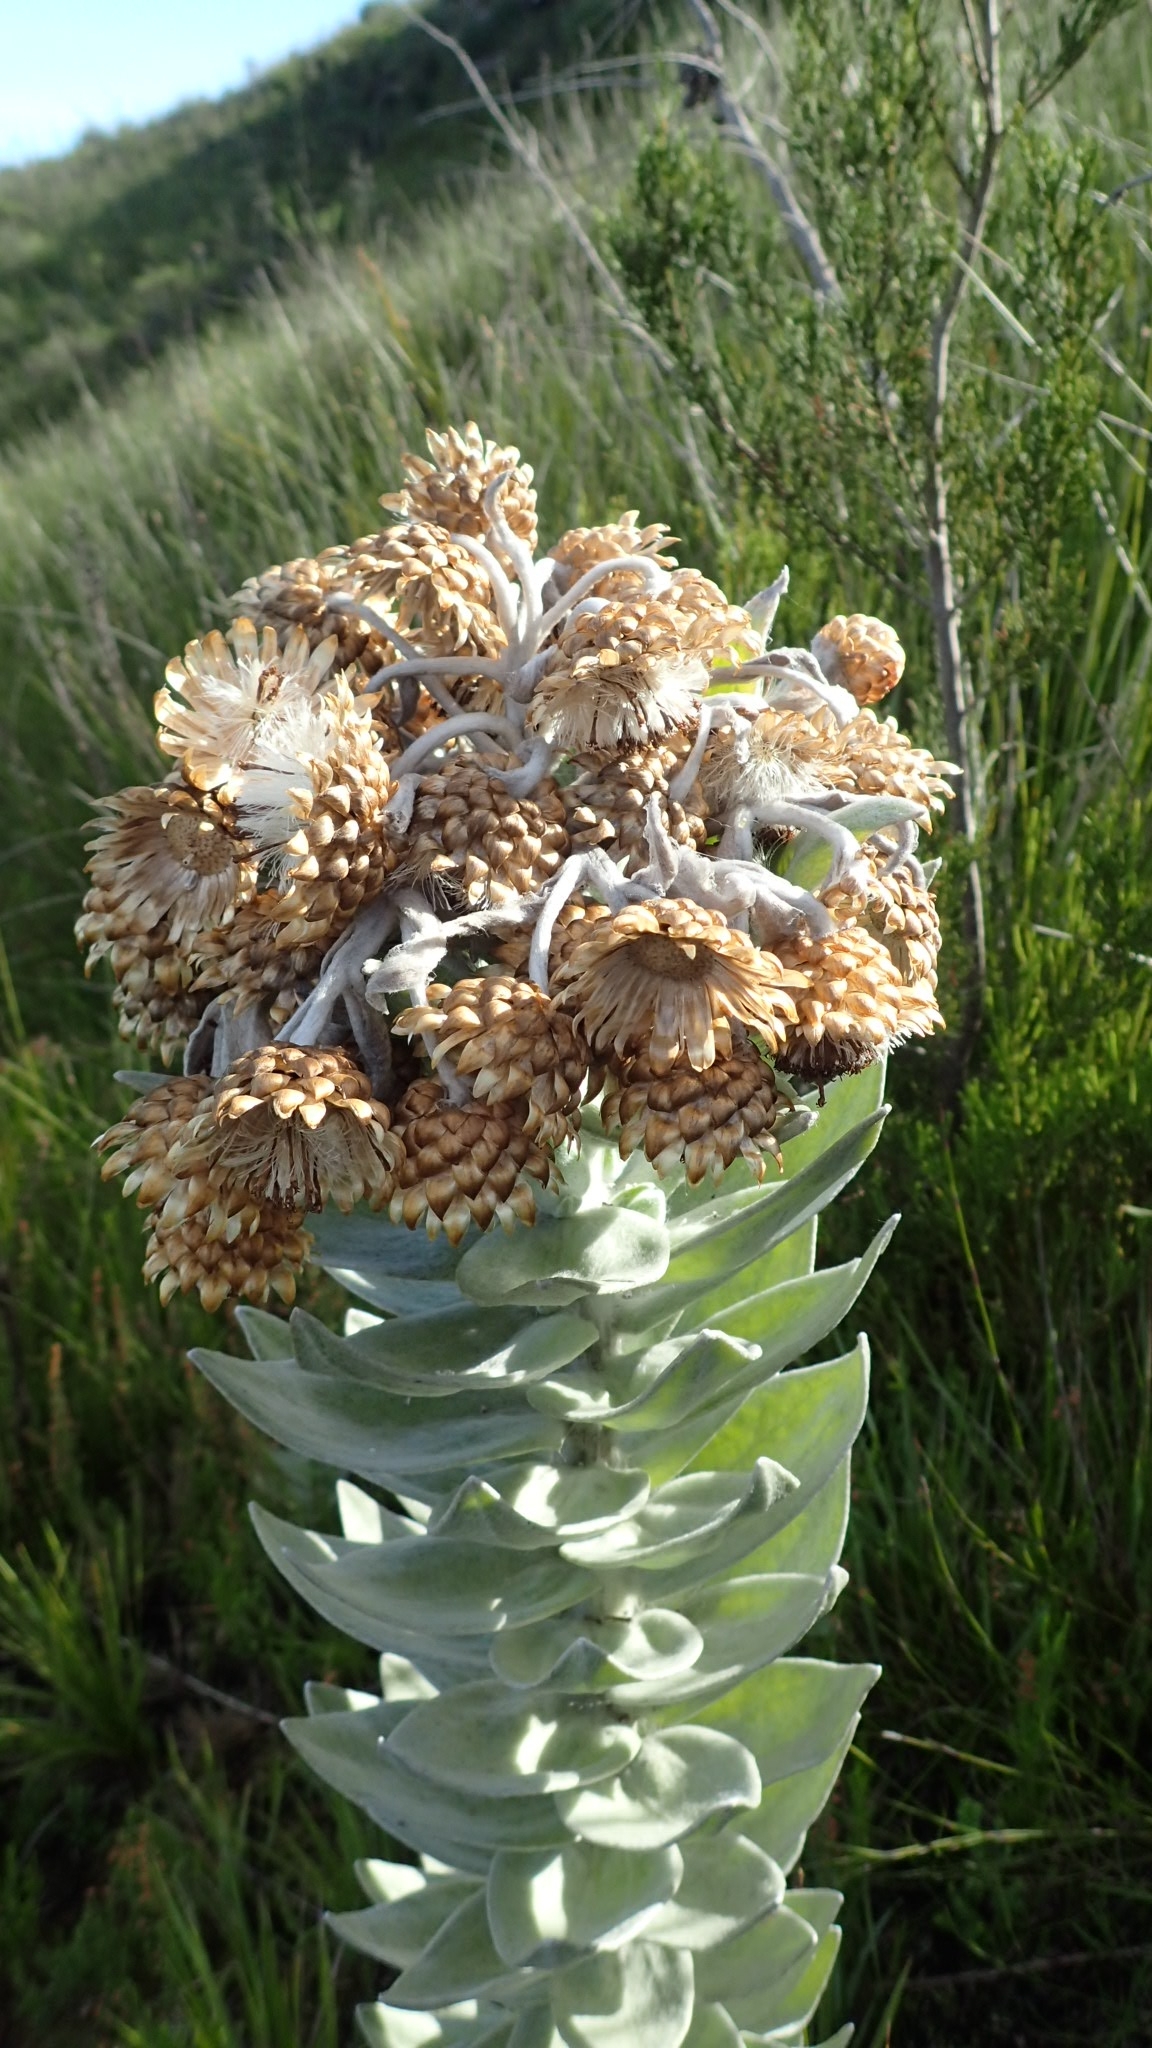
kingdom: Plantae
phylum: Tracheophyta
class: Magnoliopsida
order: Asterales
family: Asteraceae
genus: Syncarpha
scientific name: Syncarpha eximia
